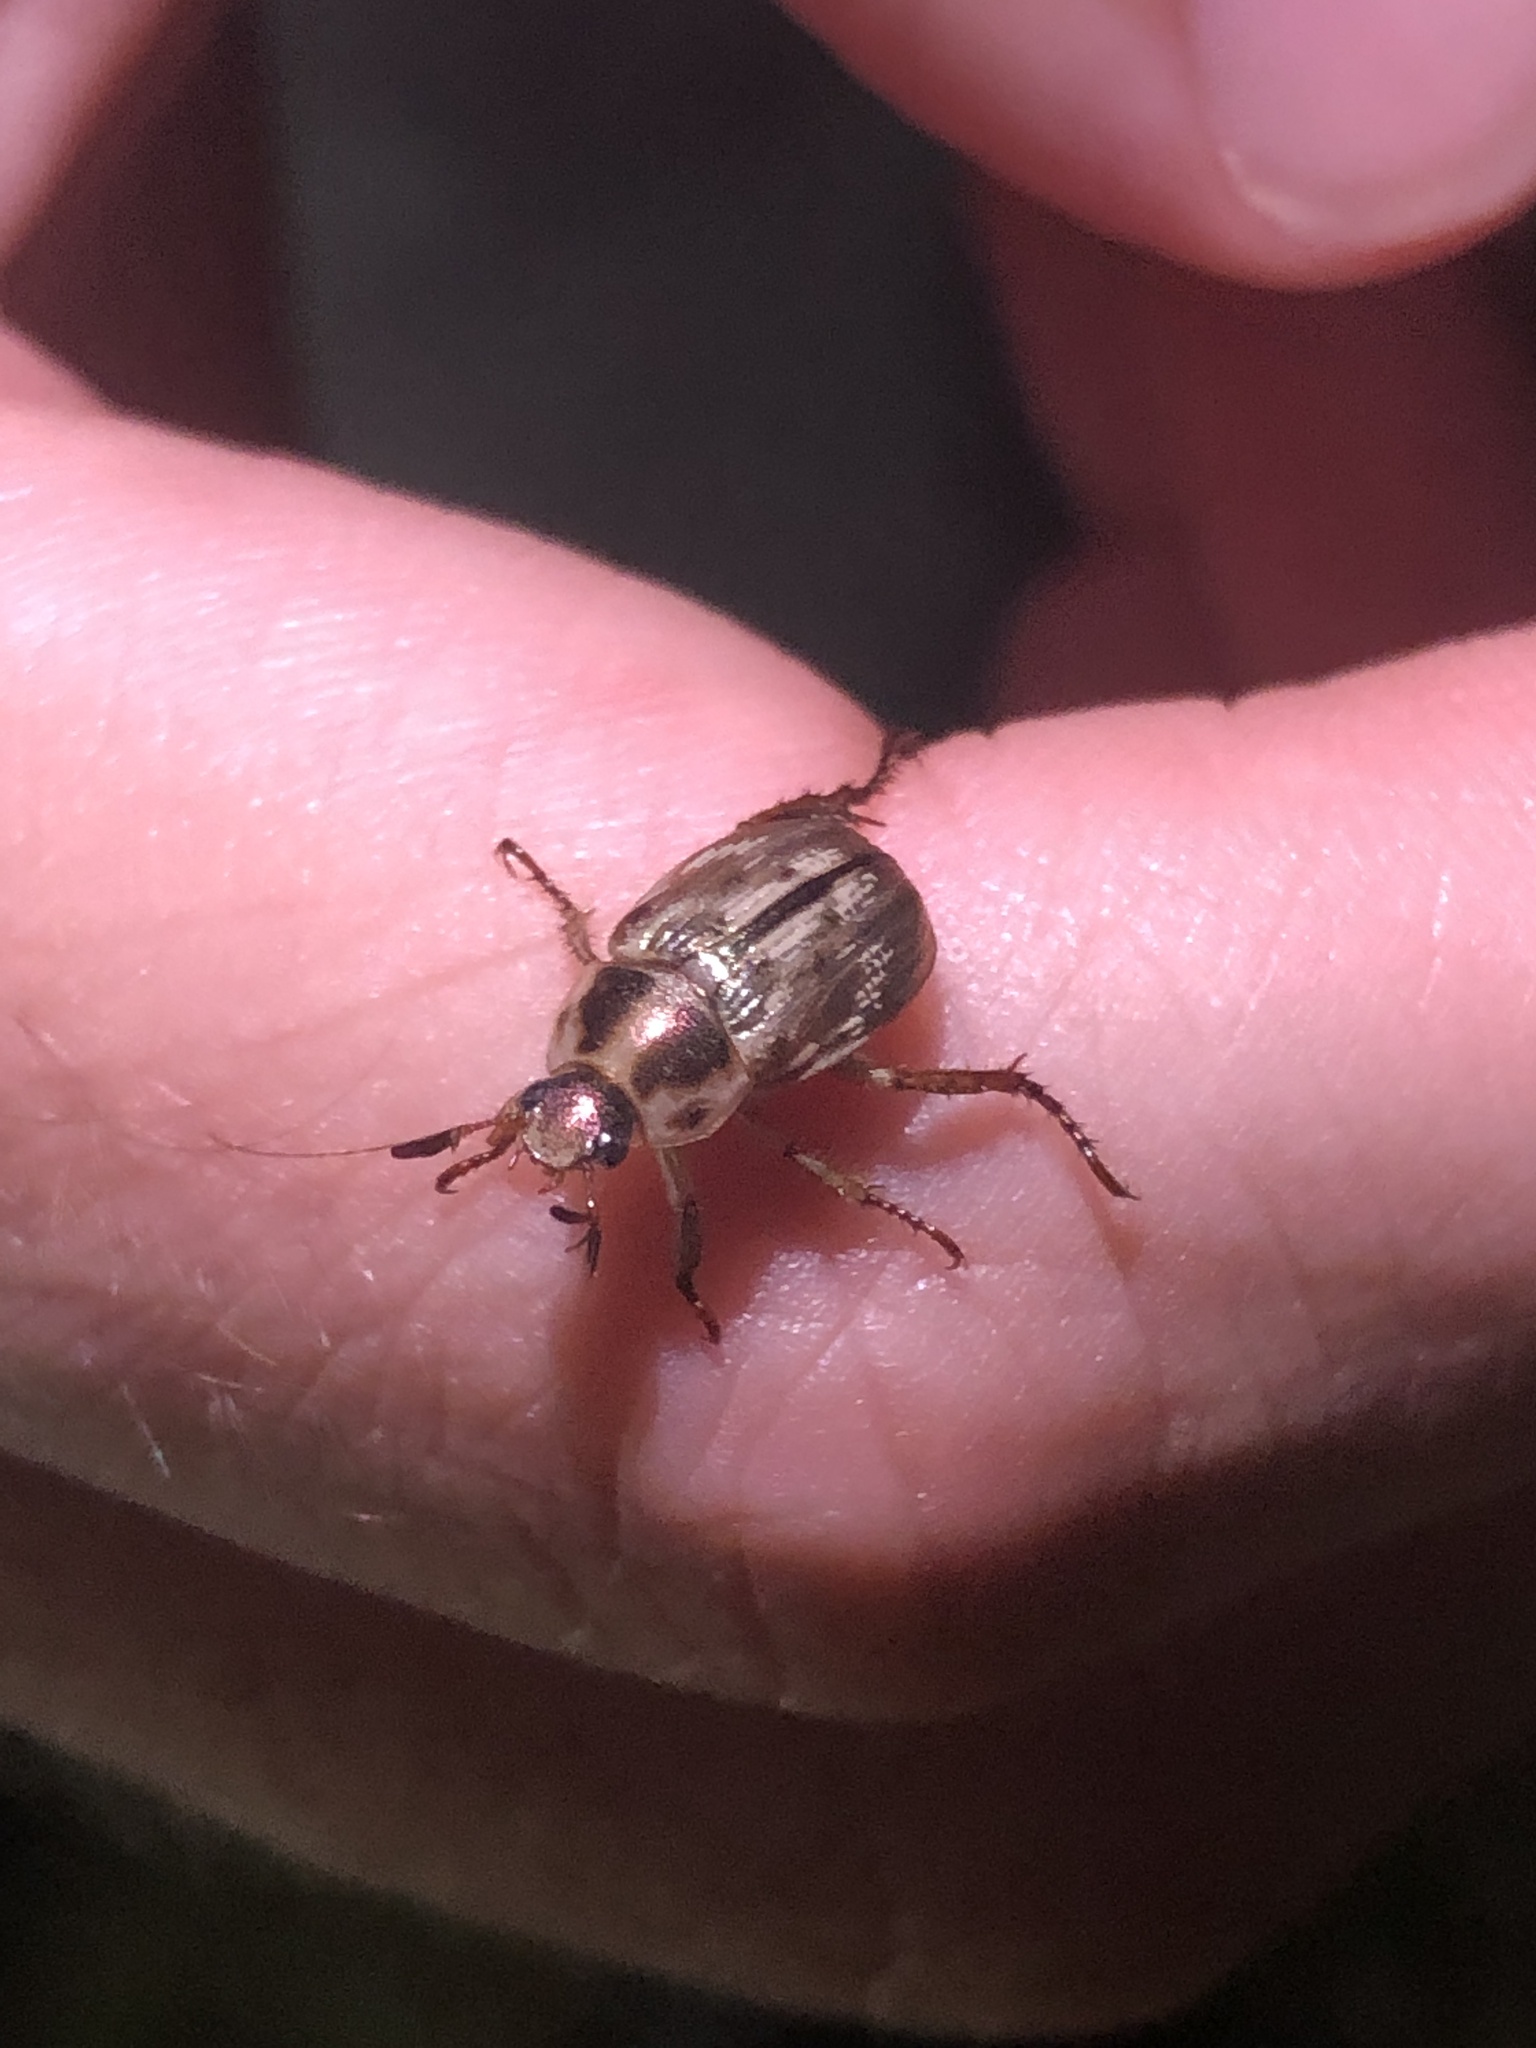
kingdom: Animalia
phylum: Arthropoda
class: Insecta
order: Coleoptera
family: Scarabaeidae
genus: Exomala
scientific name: Exomala orientalis
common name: Oriental beetle
